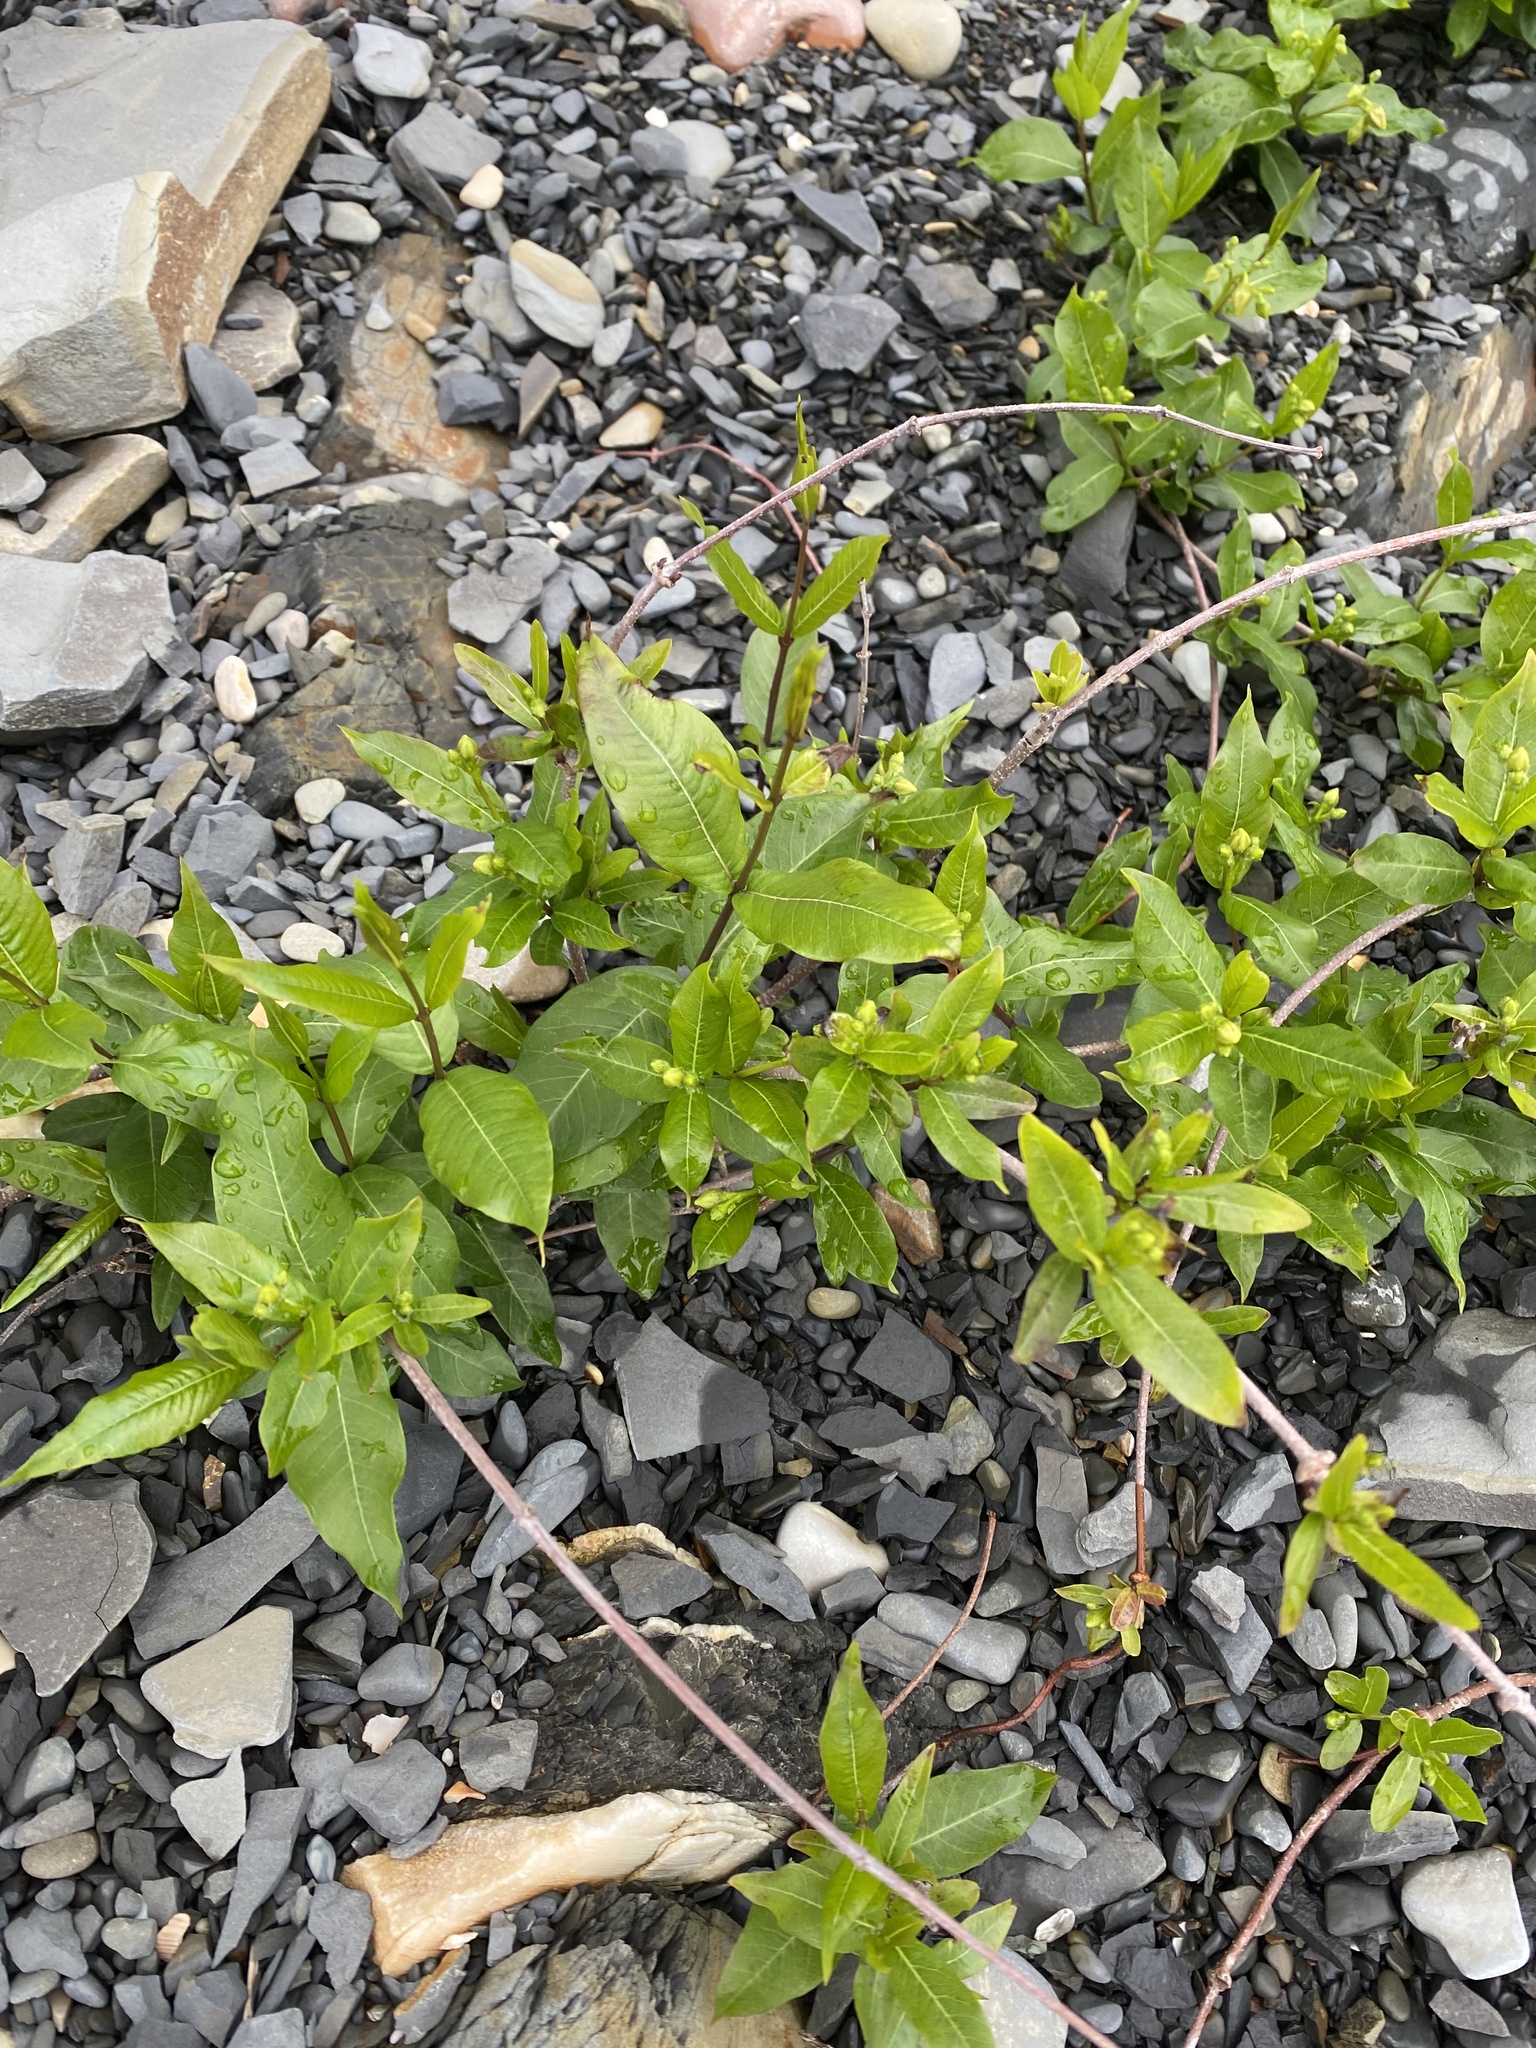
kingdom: Plantae
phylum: Tracheophyta
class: Magnoliopsida
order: Gentianales
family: Apocynaceae
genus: Periploca
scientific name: Periploca graeca
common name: Silkvine
